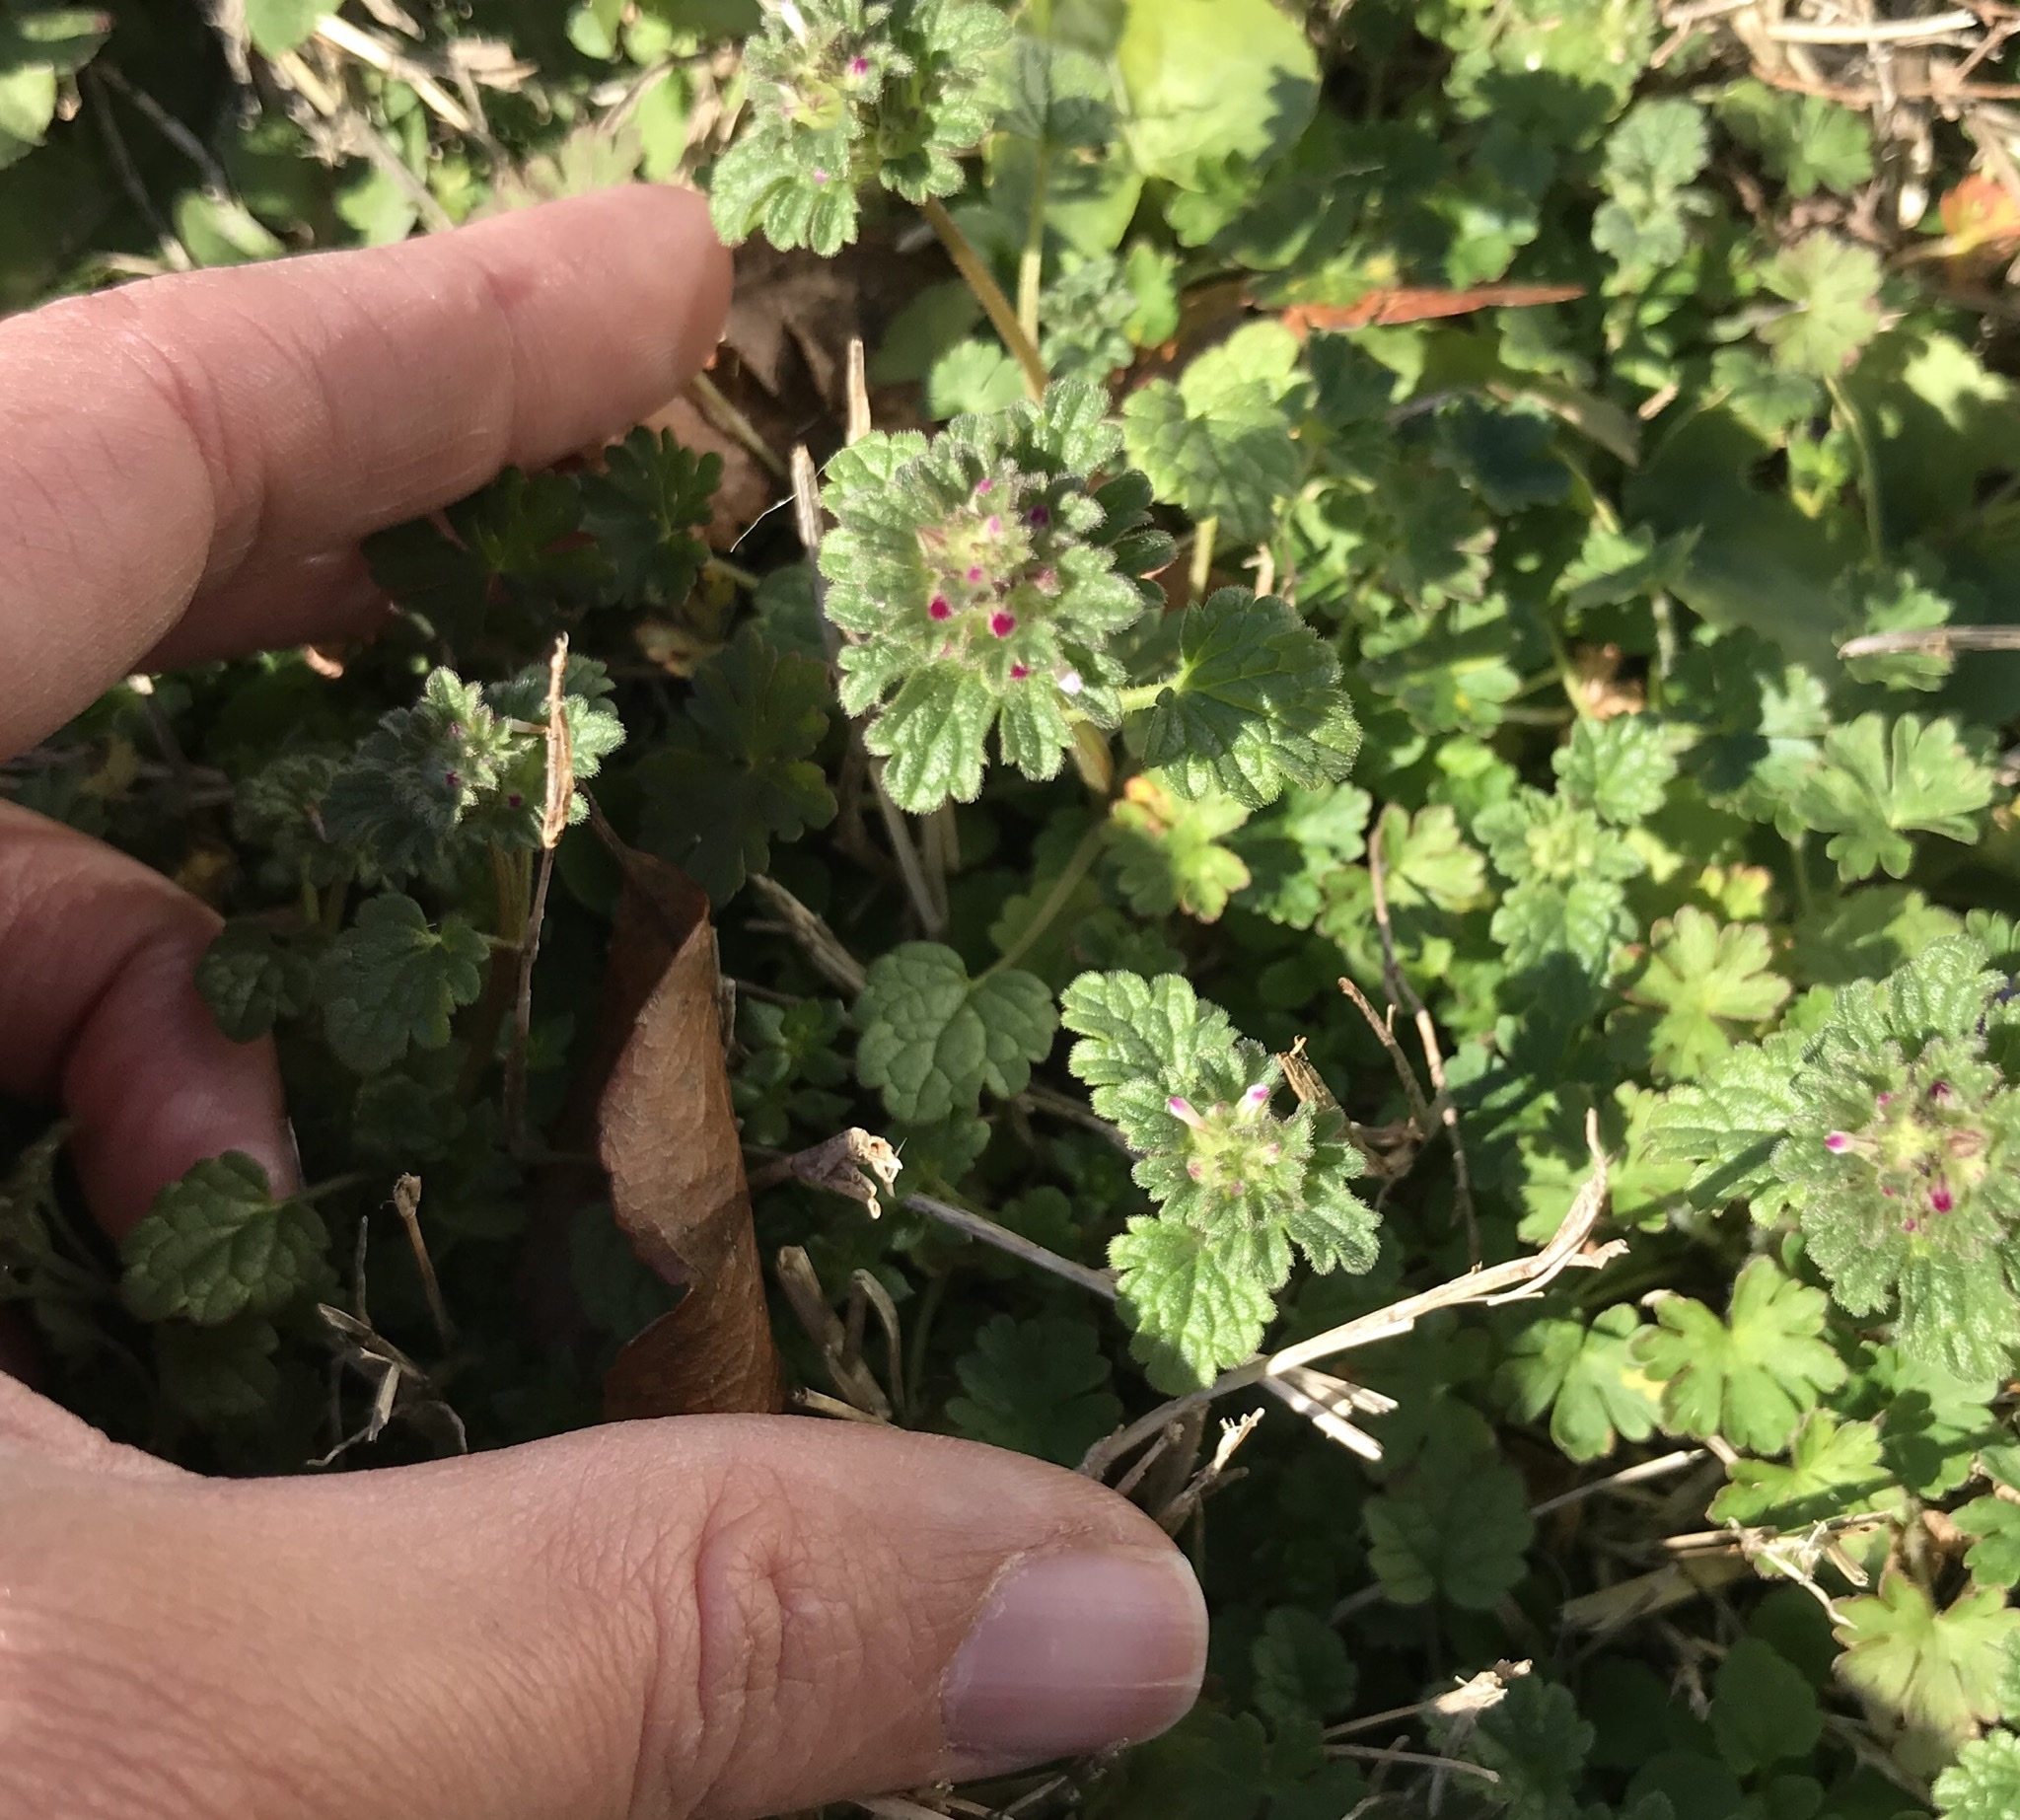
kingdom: Plantae
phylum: Tracheophyta
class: Magnoliopsida
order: Lamiales
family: Lamiaceae
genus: Lamium
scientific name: Lamium amplexicaule
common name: Henbit dead-nettle
